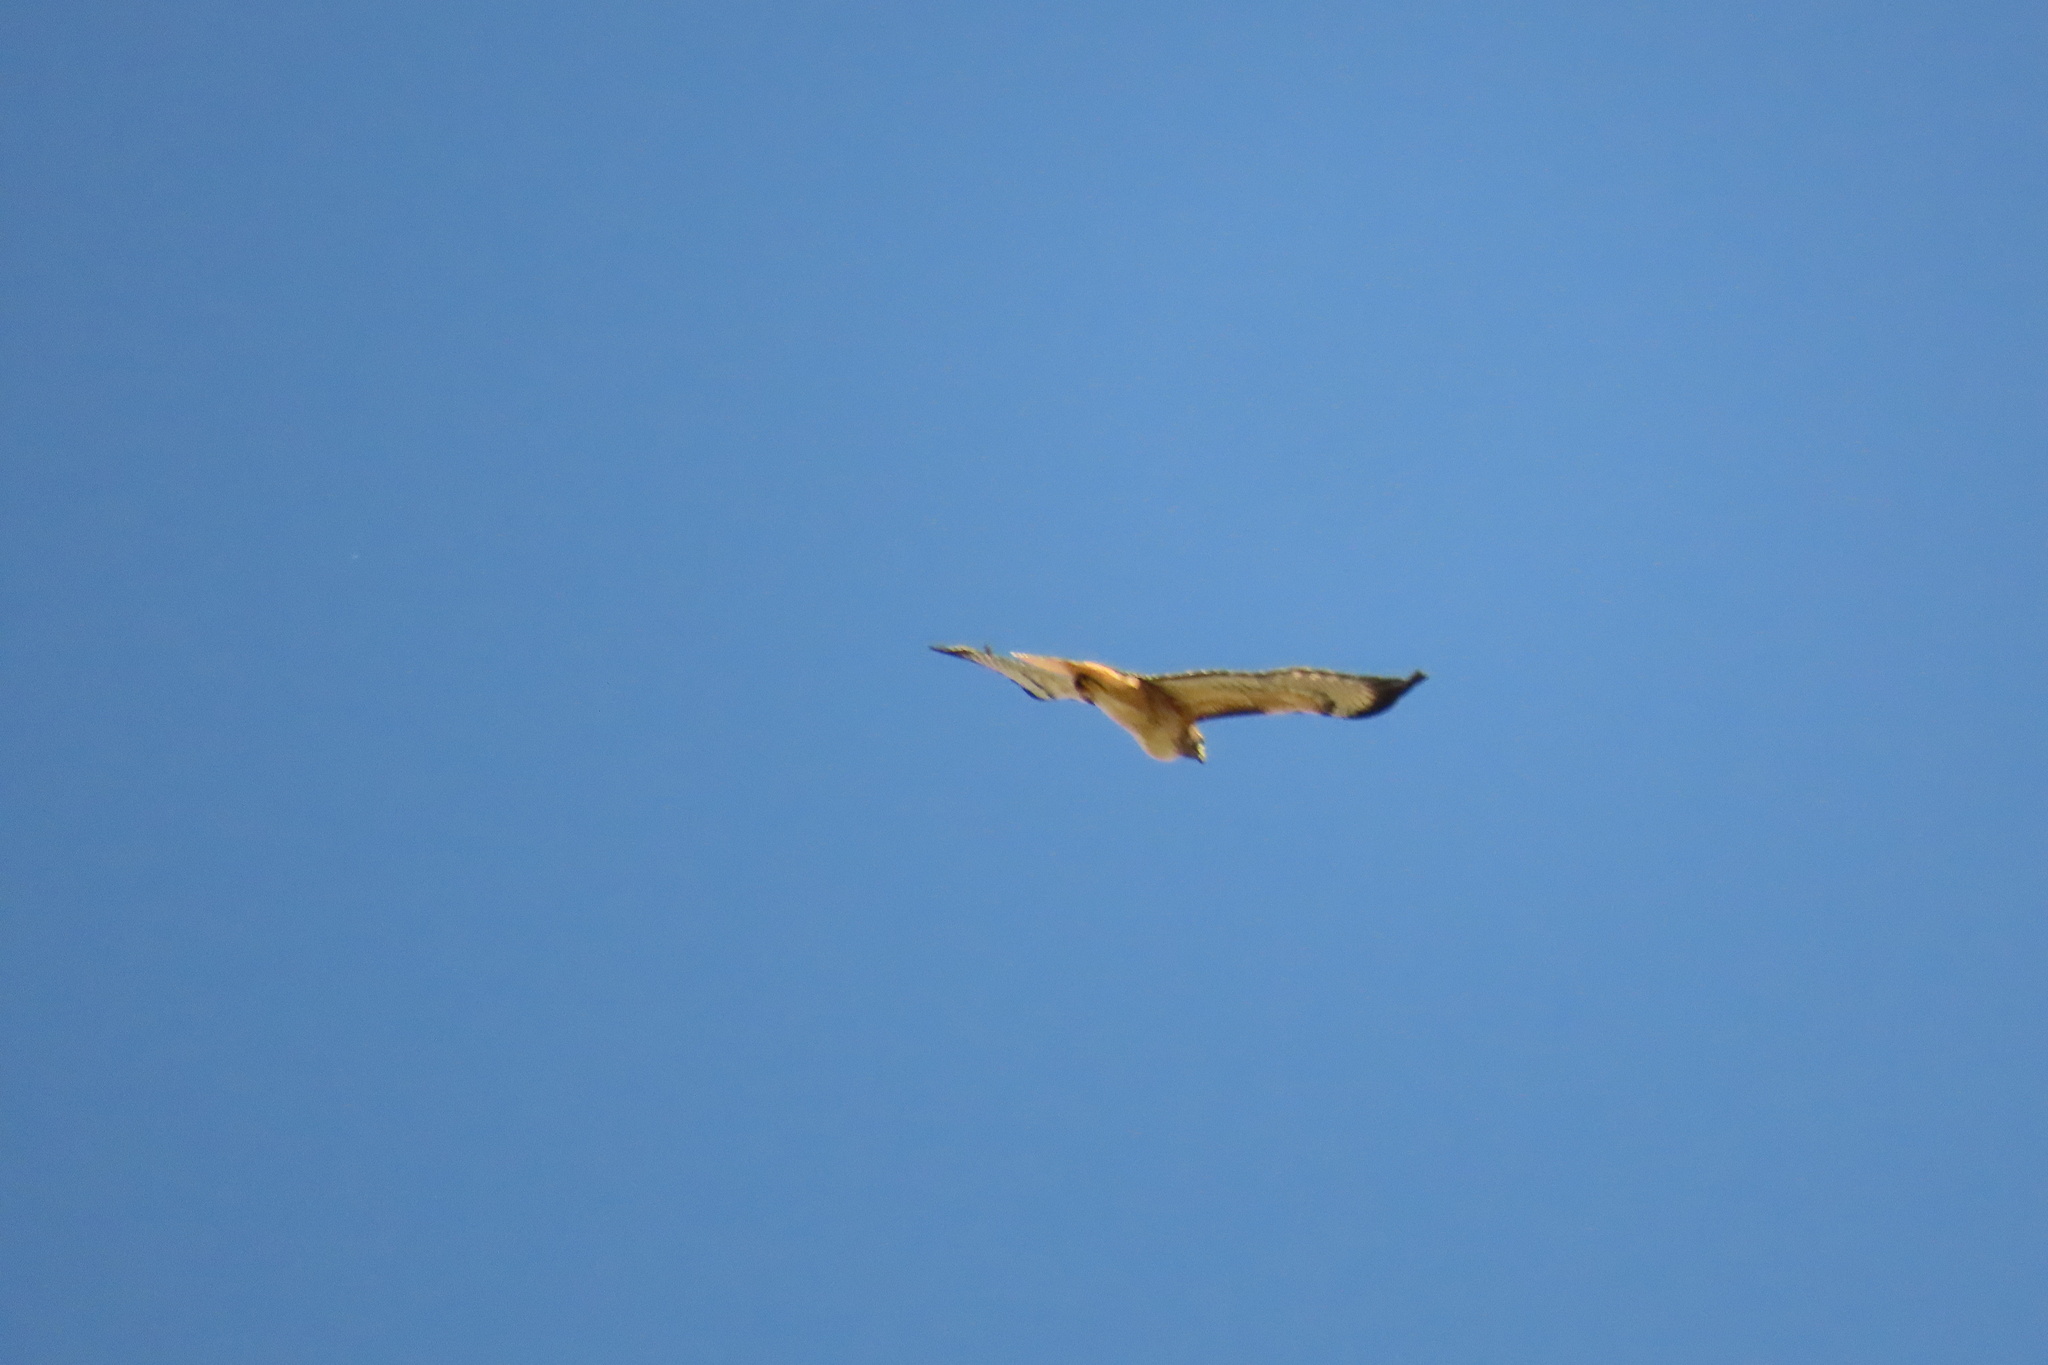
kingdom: Animalia
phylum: Chordata
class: Aves
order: Accipitriformes
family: Accipitridae
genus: Buteo
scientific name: Buteo jamaicensis
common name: Red-tailed hawk
